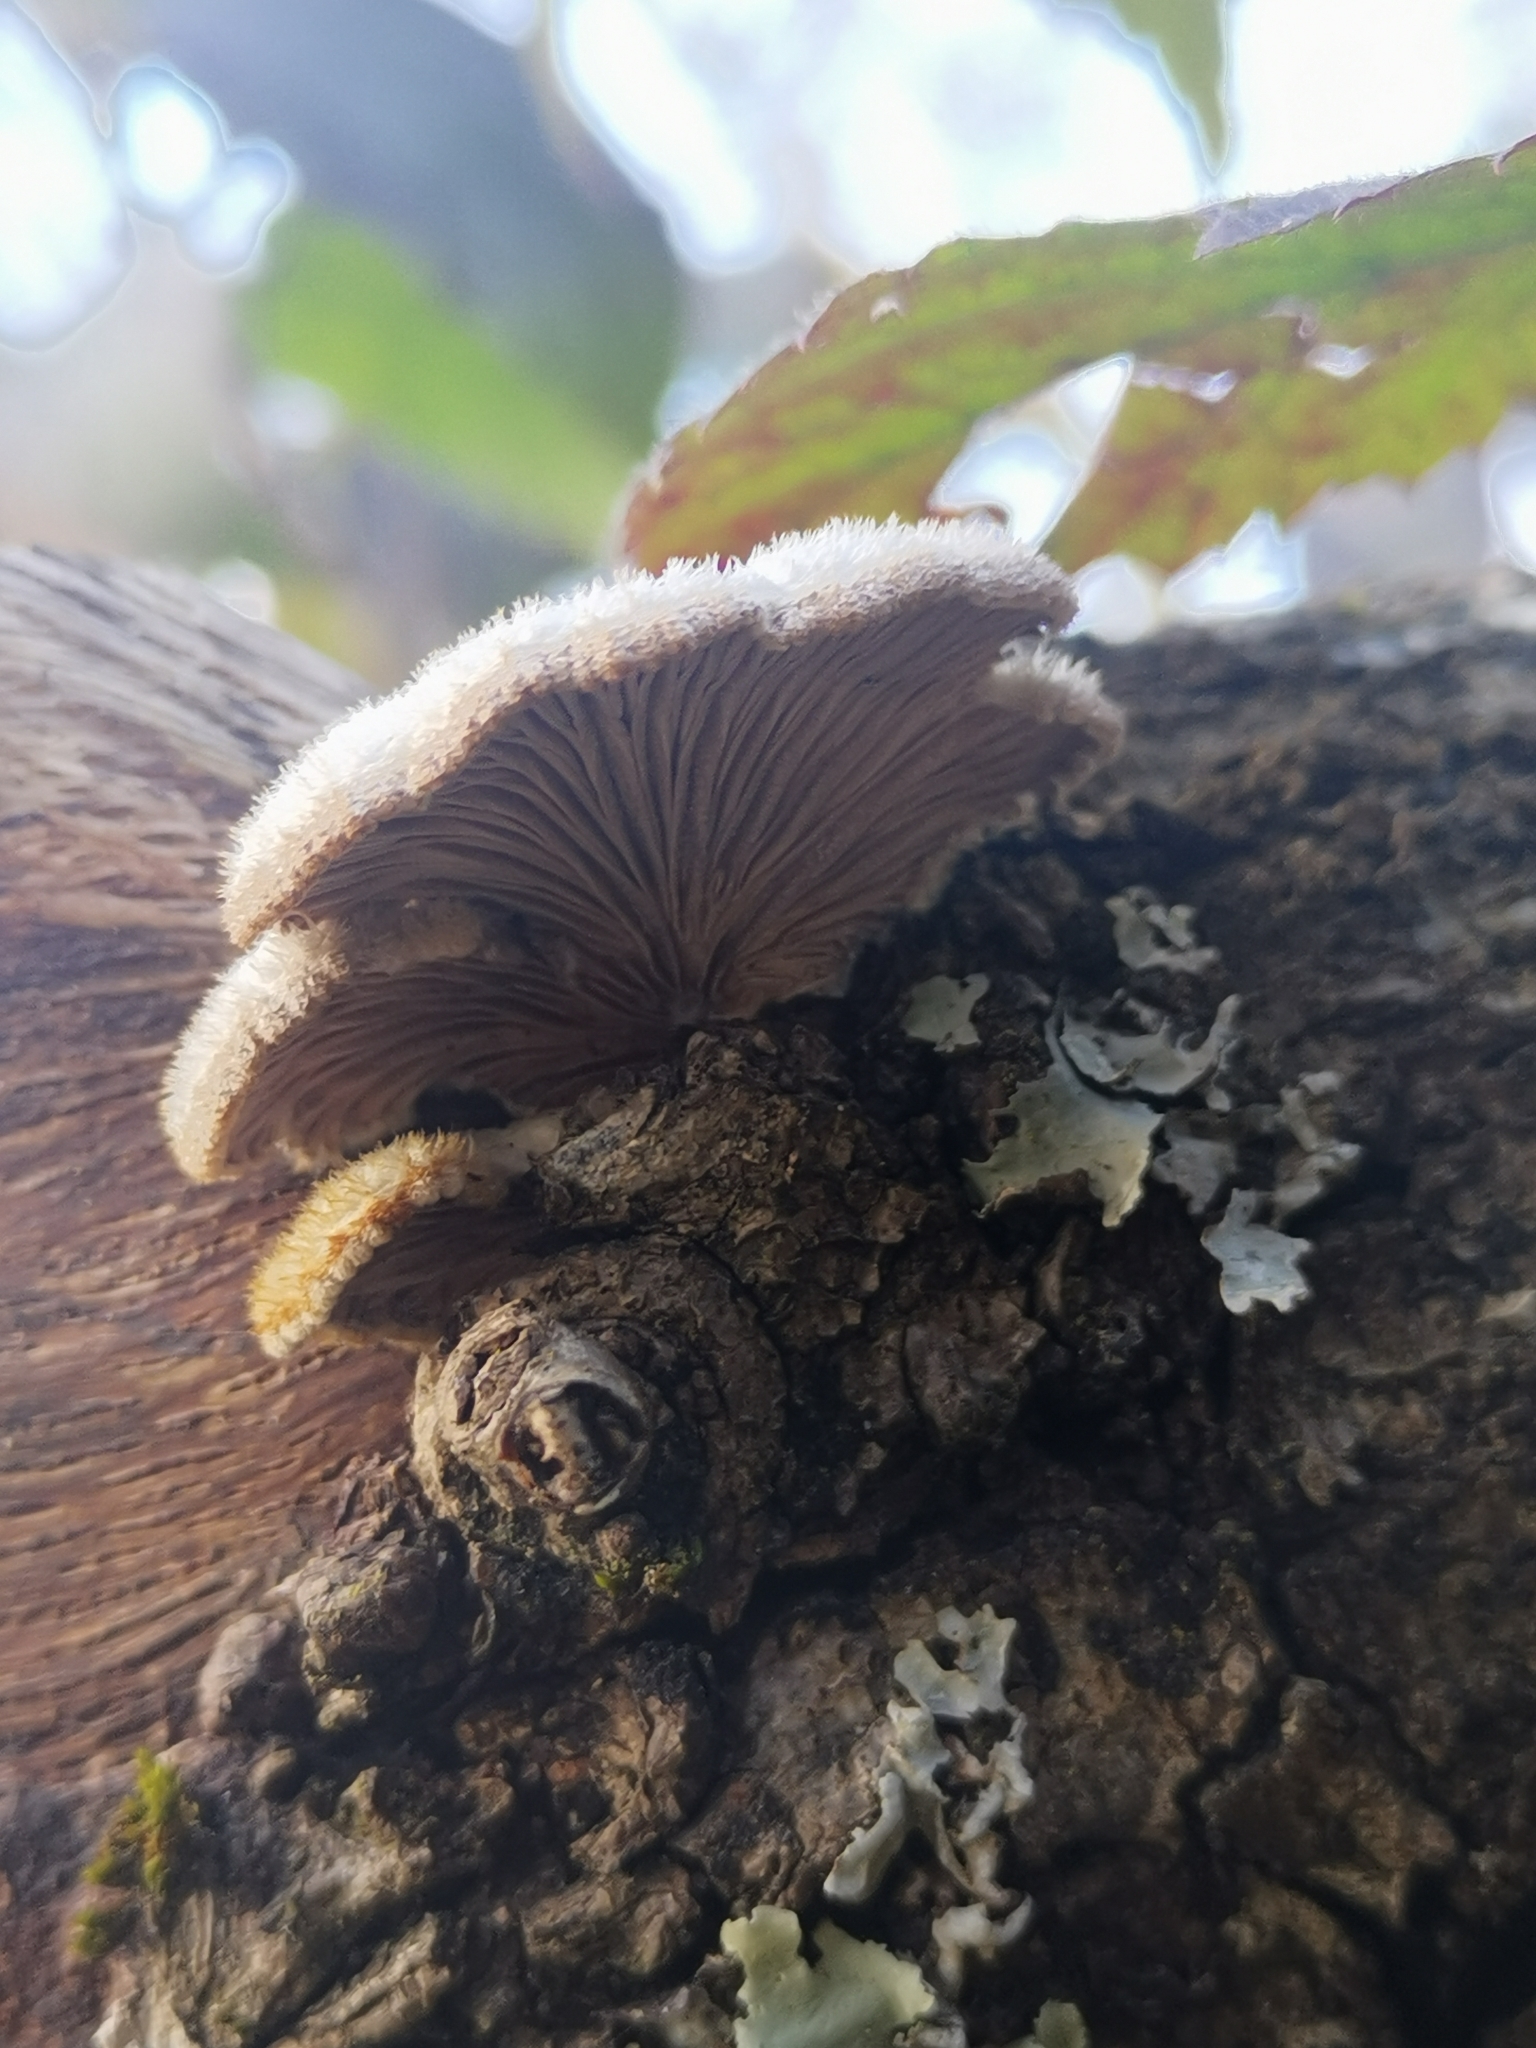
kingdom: Fungi
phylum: Basidiomycota
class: Agaricomycetes
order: Agaricales
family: Schizophyllaceae
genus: Schizophyllum
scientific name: Schizophyllum commune
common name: Common porecrust
